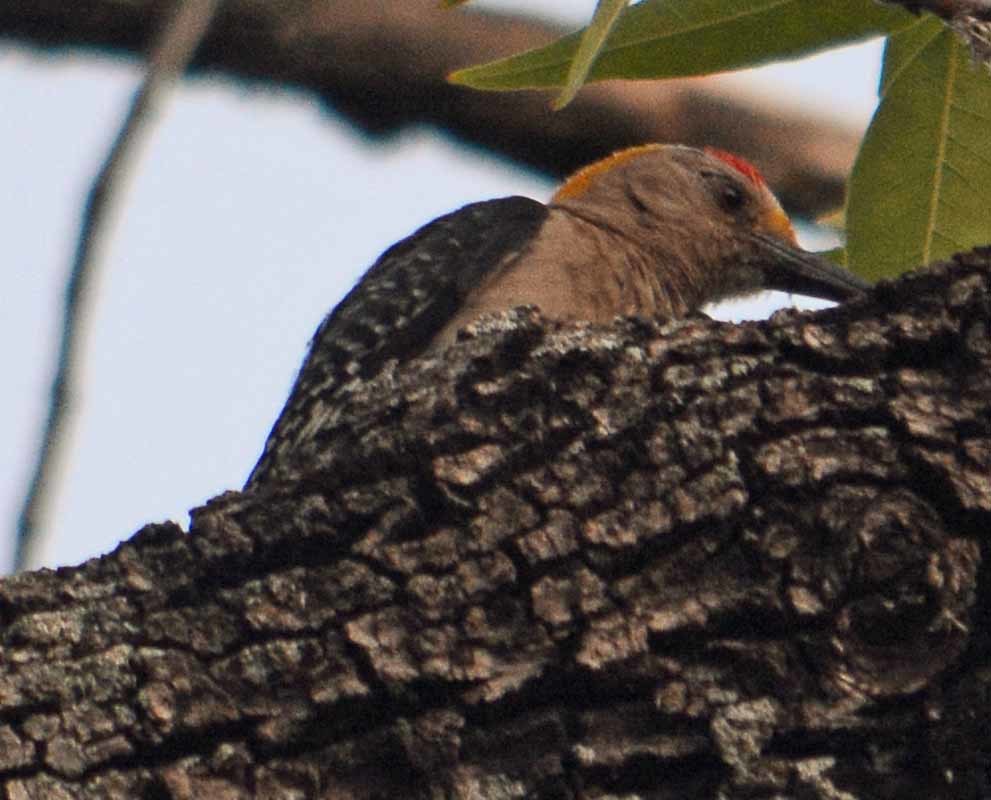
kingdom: Animalia
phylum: Chordata
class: Aves
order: Piciformes
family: Picidae
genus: Melanerpes
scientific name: Melanerpes aurifrons
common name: Golden-fronted woodpecker
